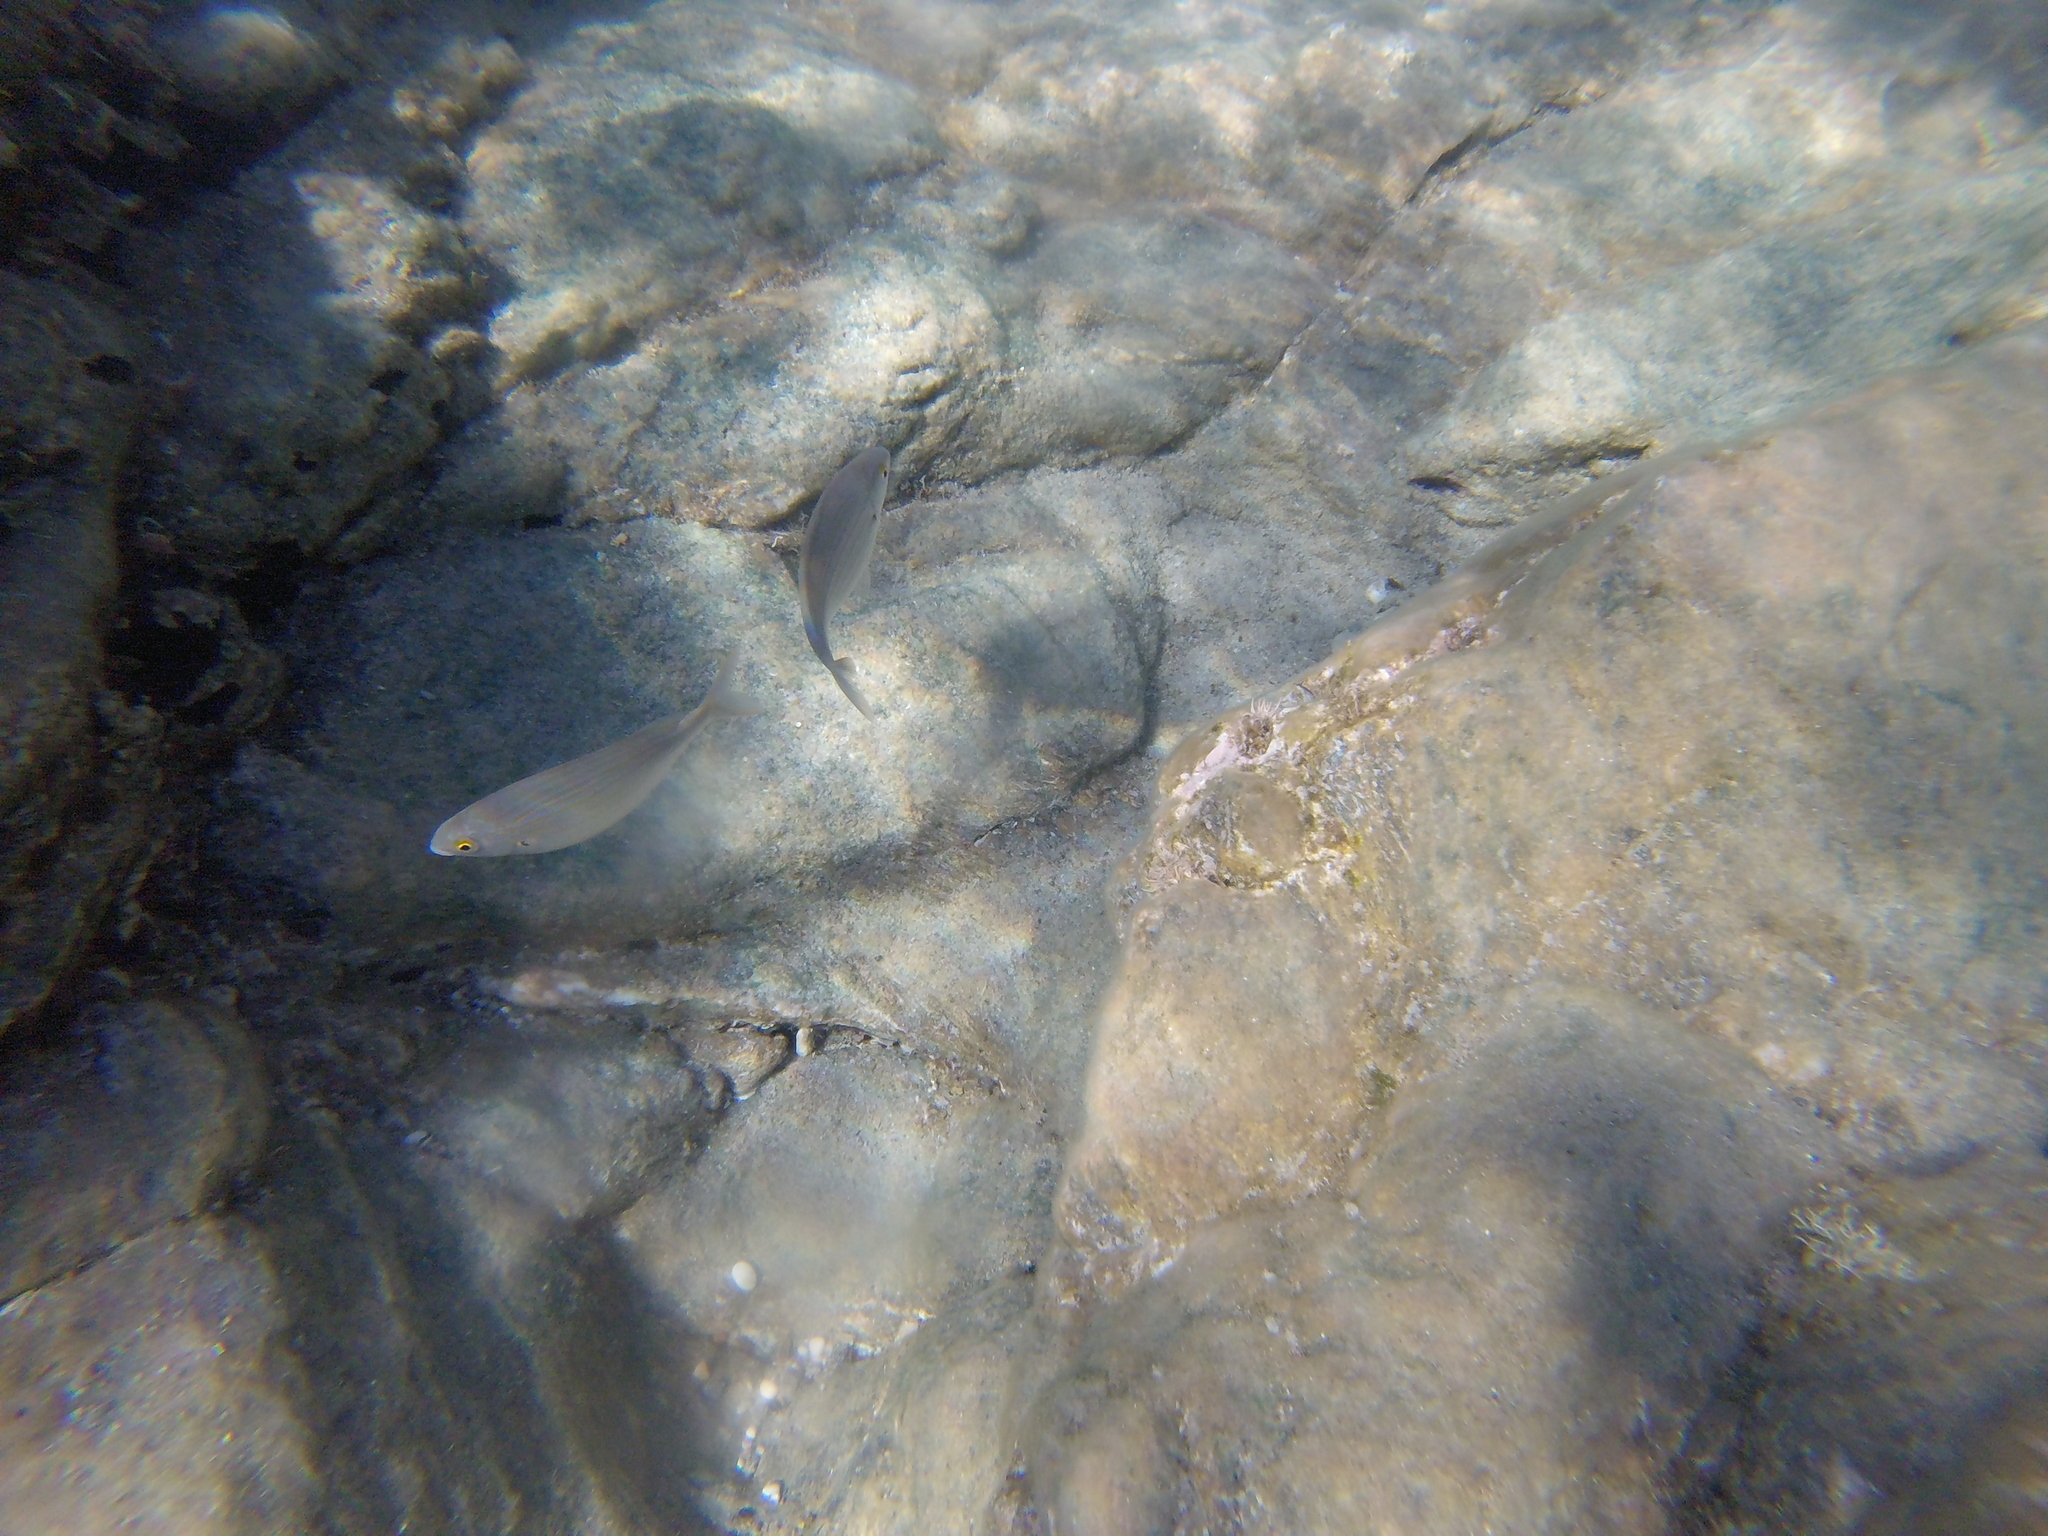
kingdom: Animalia
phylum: Chordata
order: Perciformes
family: Sparidae
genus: Sarpa
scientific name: Sarpa salpa
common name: Salema
